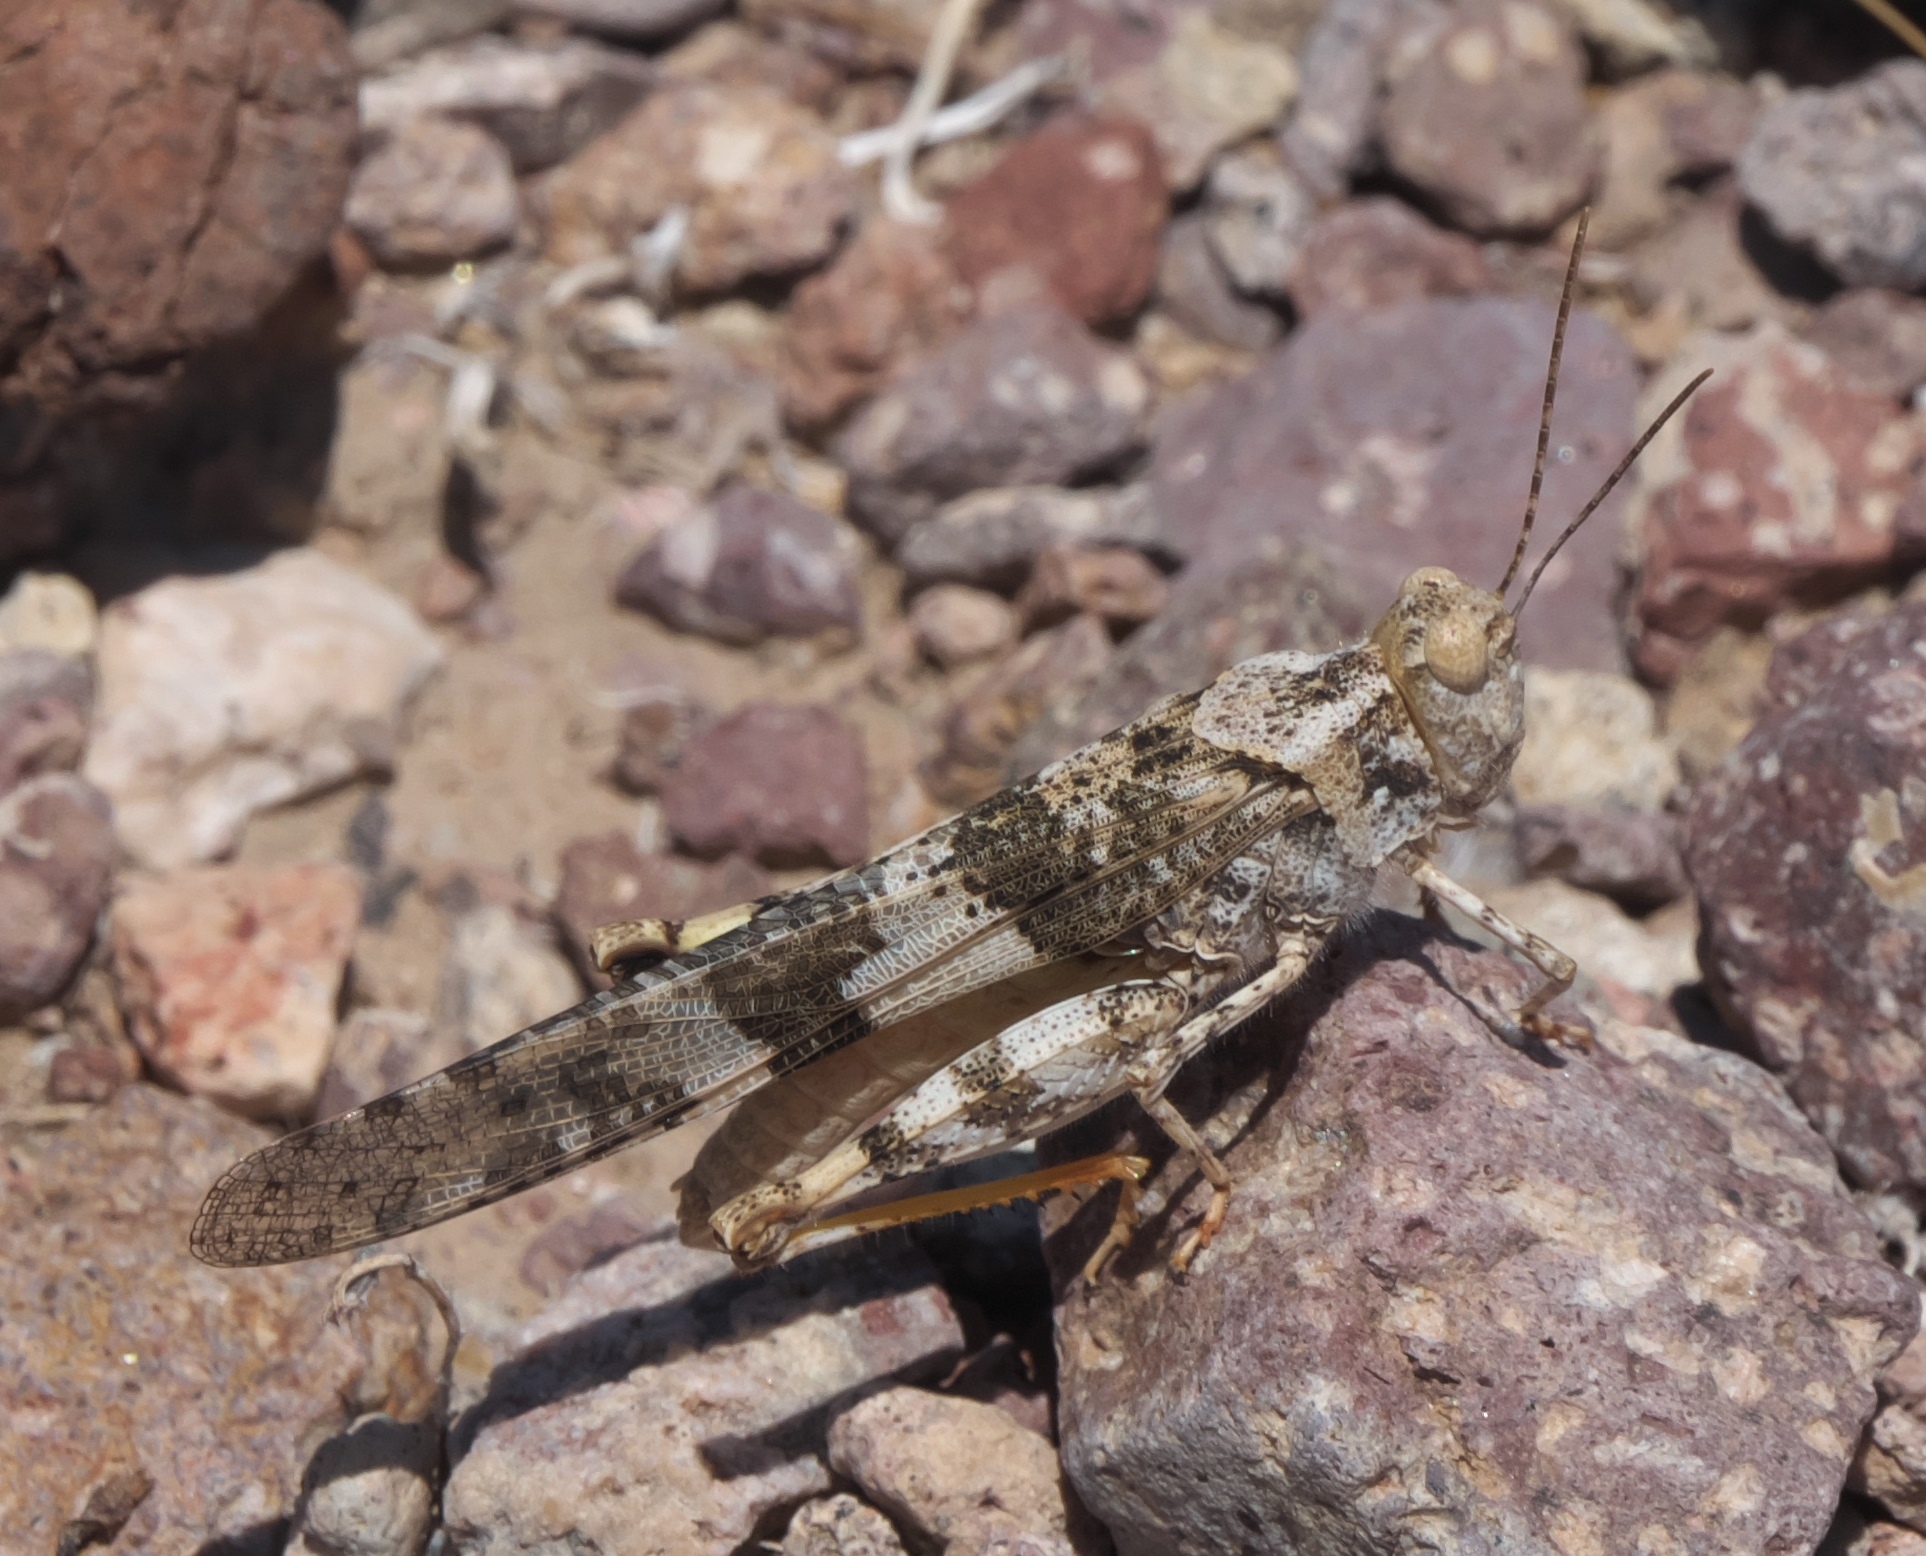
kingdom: Animalia
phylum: Arthropoda
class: Insecta
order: Orthoptera
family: Acrididae
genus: Trimerotropis
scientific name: Trimerotropis pallidipennis
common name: Pallid-winged grasshopper
